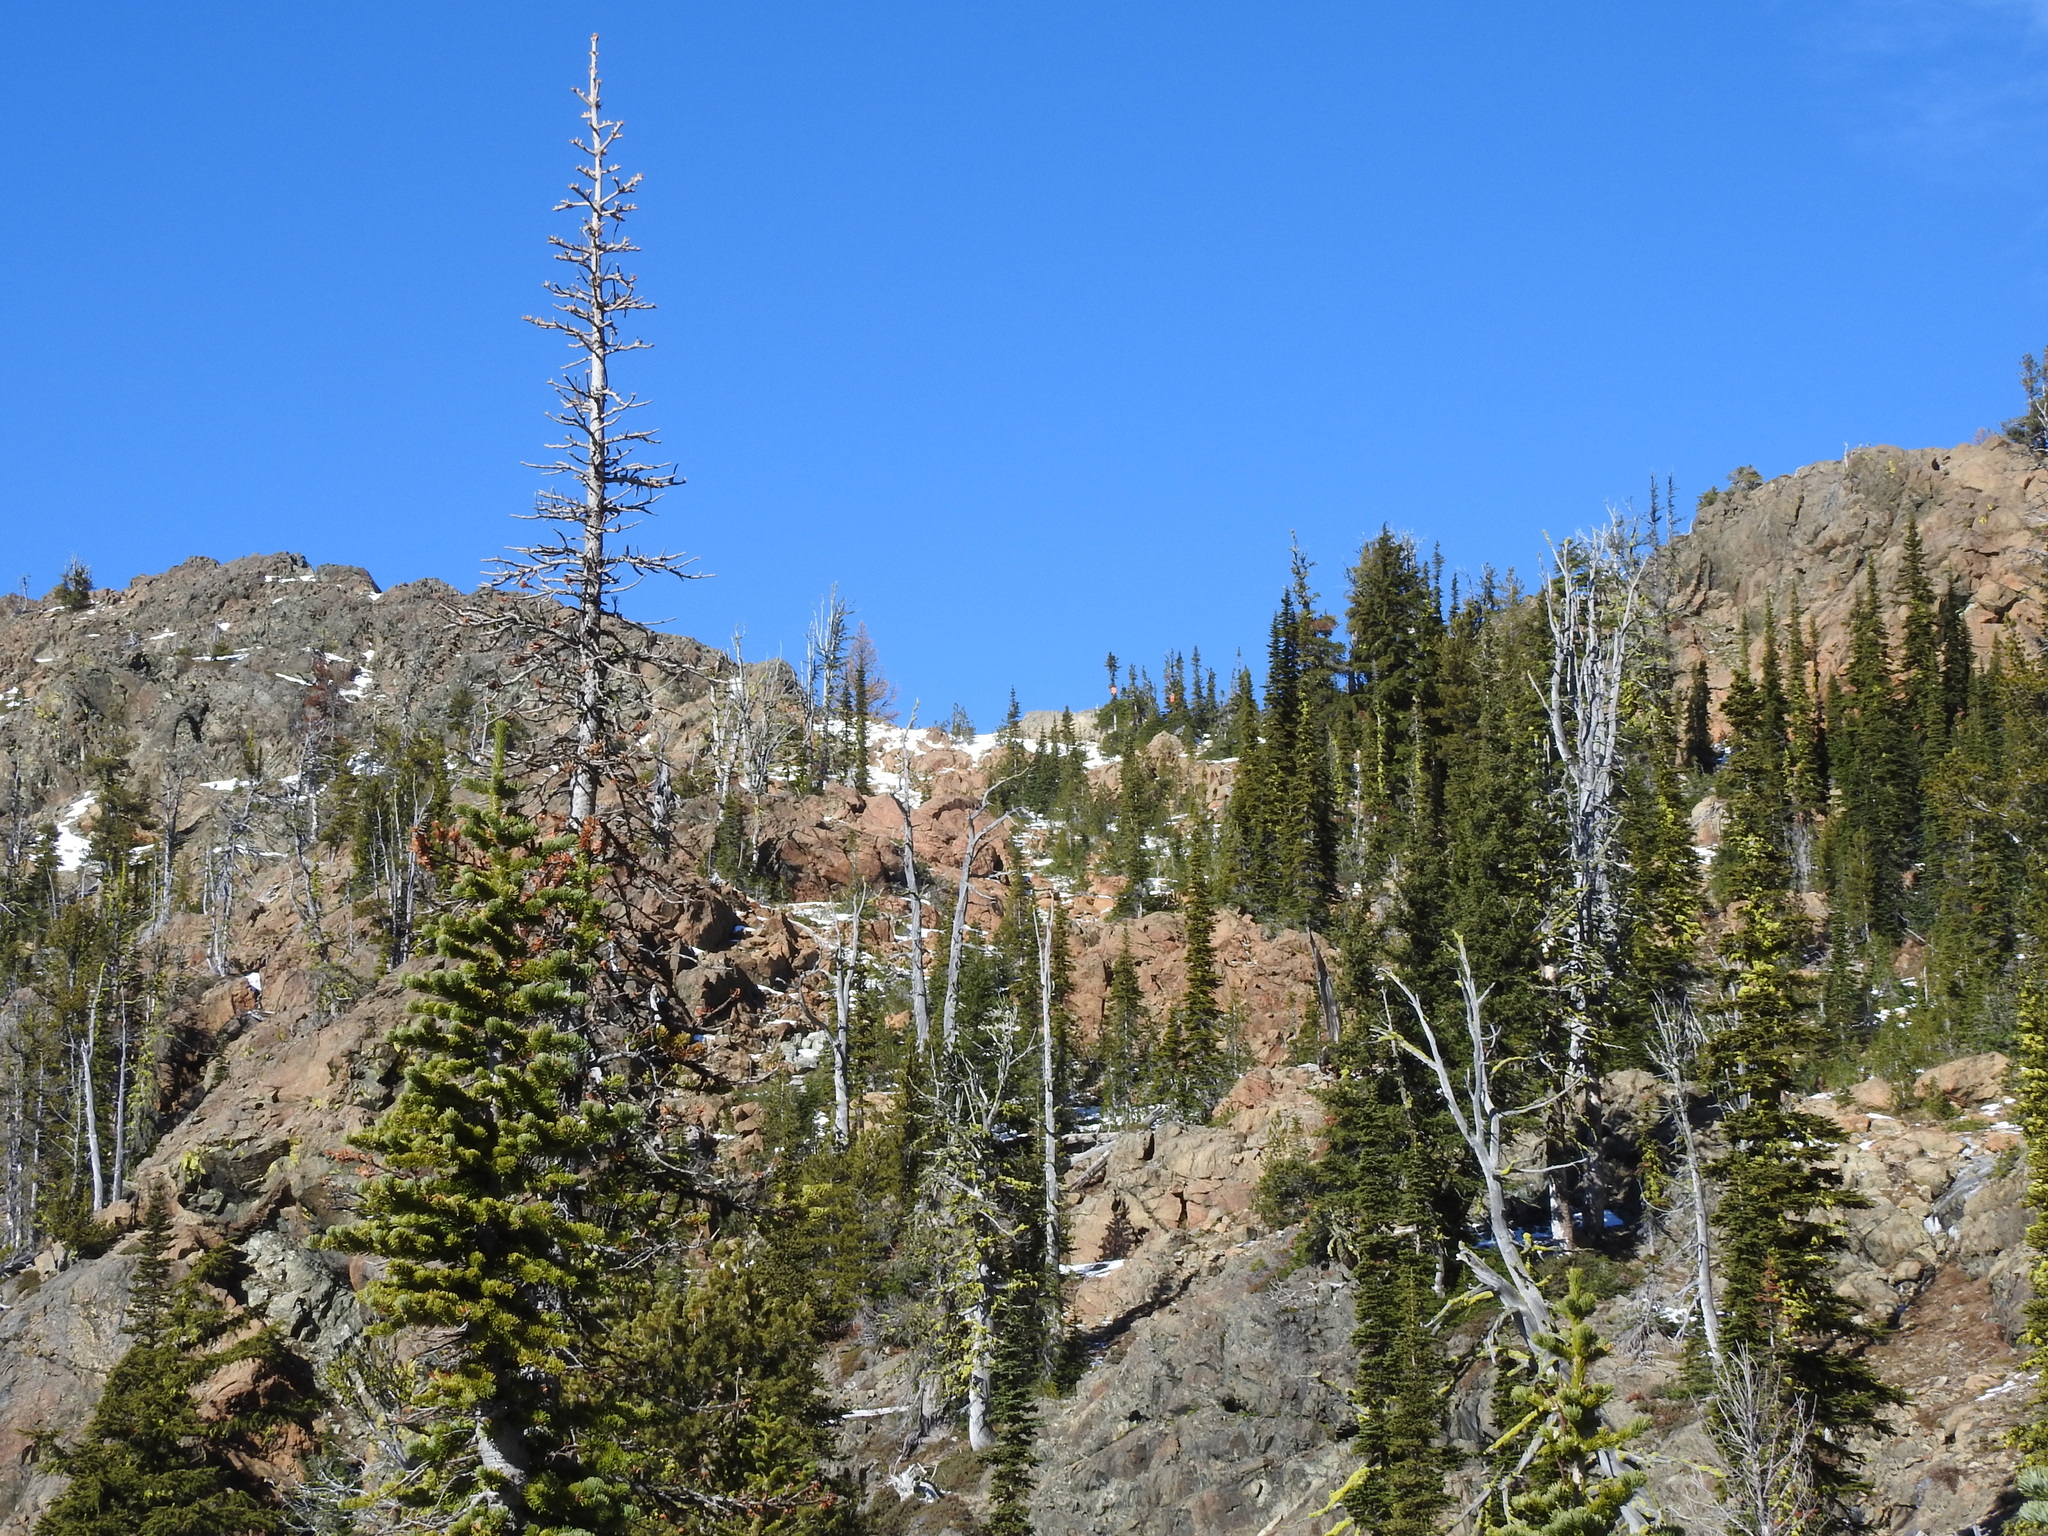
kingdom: Plantae
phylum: Tracheophyta
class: Pinopsida
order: Pinales
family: Pinaceae
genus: Abies
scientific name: Abies lasiocarpa
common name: Subalpine fir
